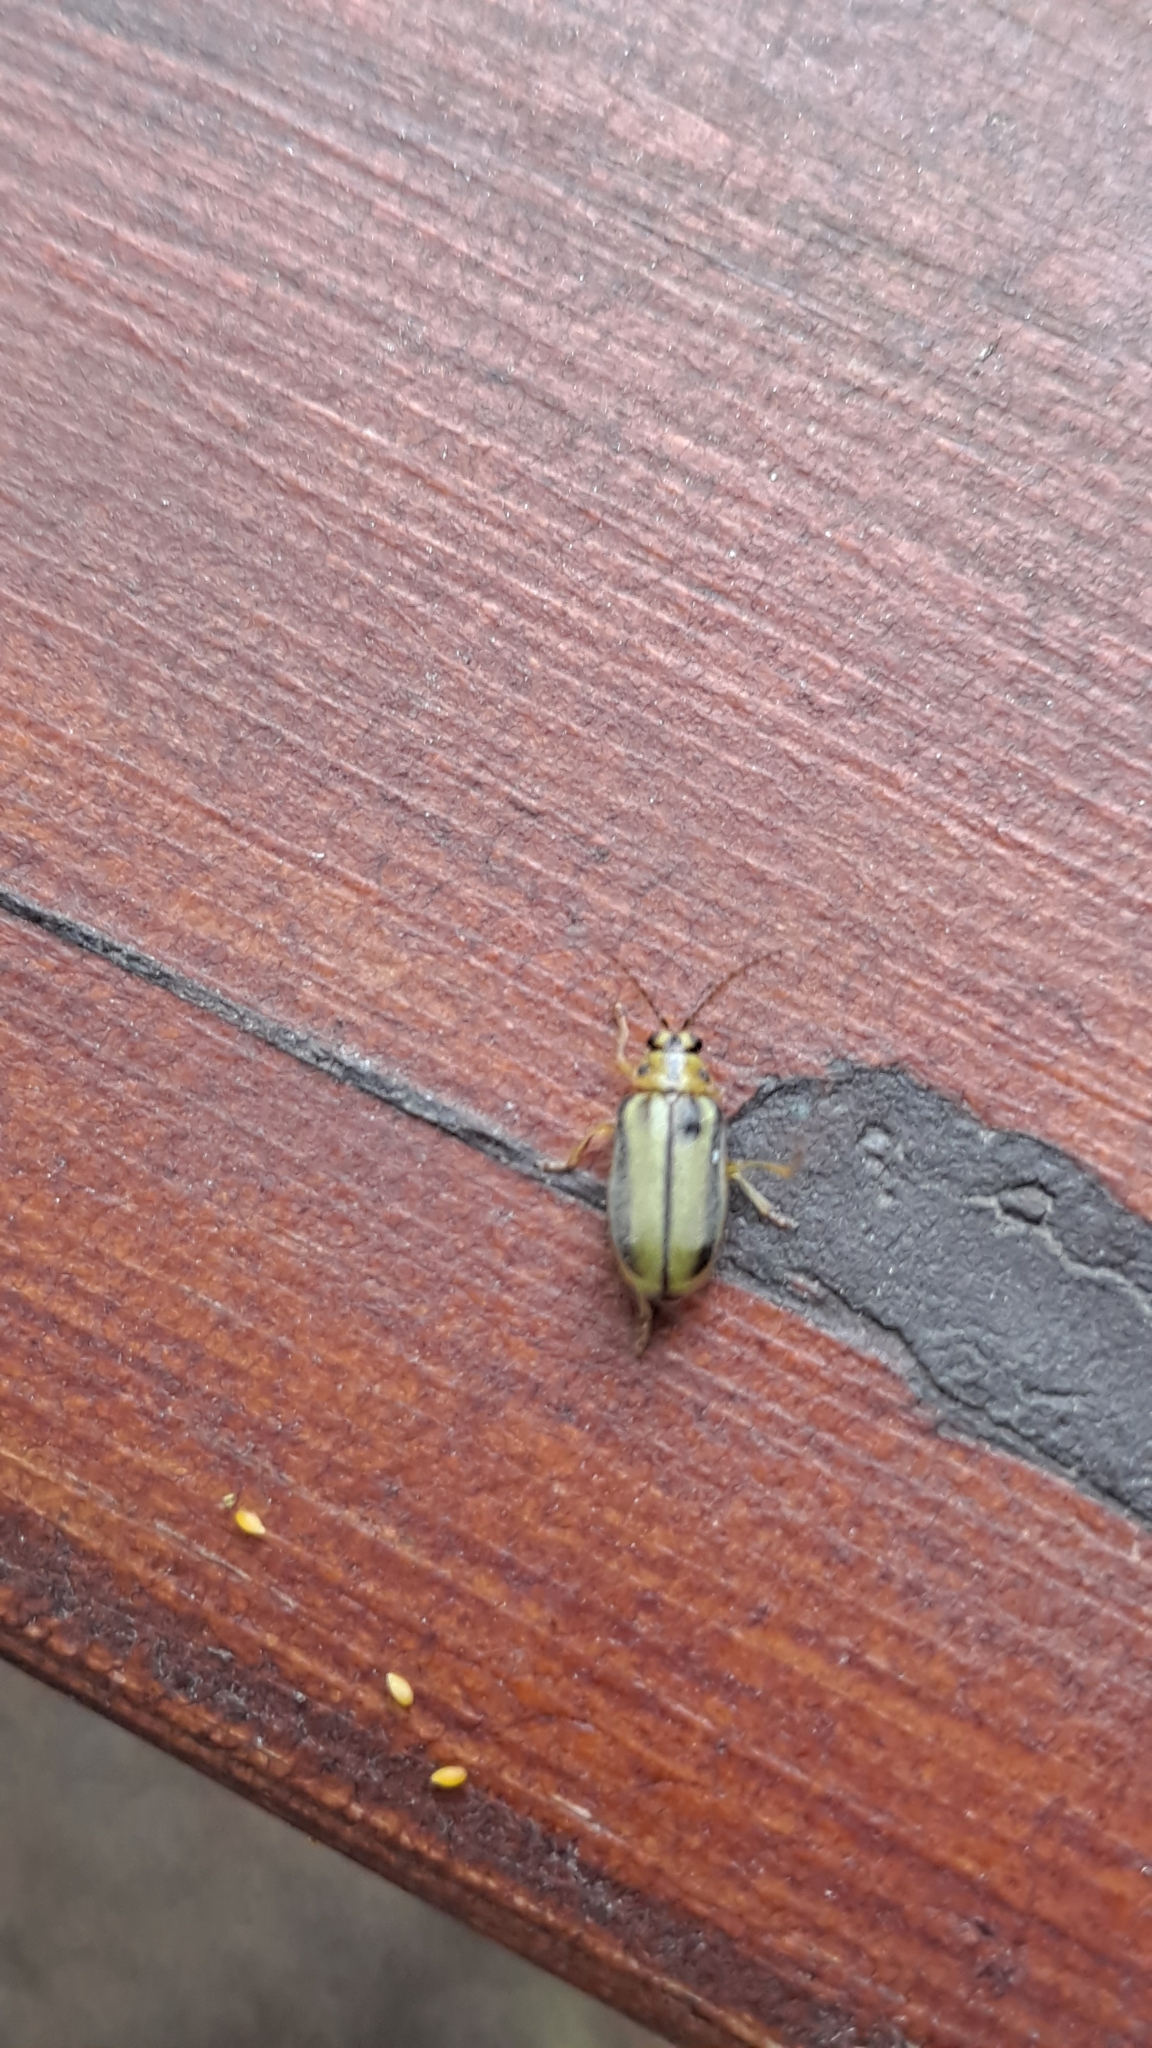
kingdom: Animalia
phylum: Arthropoda
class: Insecta
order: Coleoptera
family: Chrysomelidae
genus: Xanthogaleruca
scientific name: Xanthogaleruca luteola
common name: Elm leaf beetle
